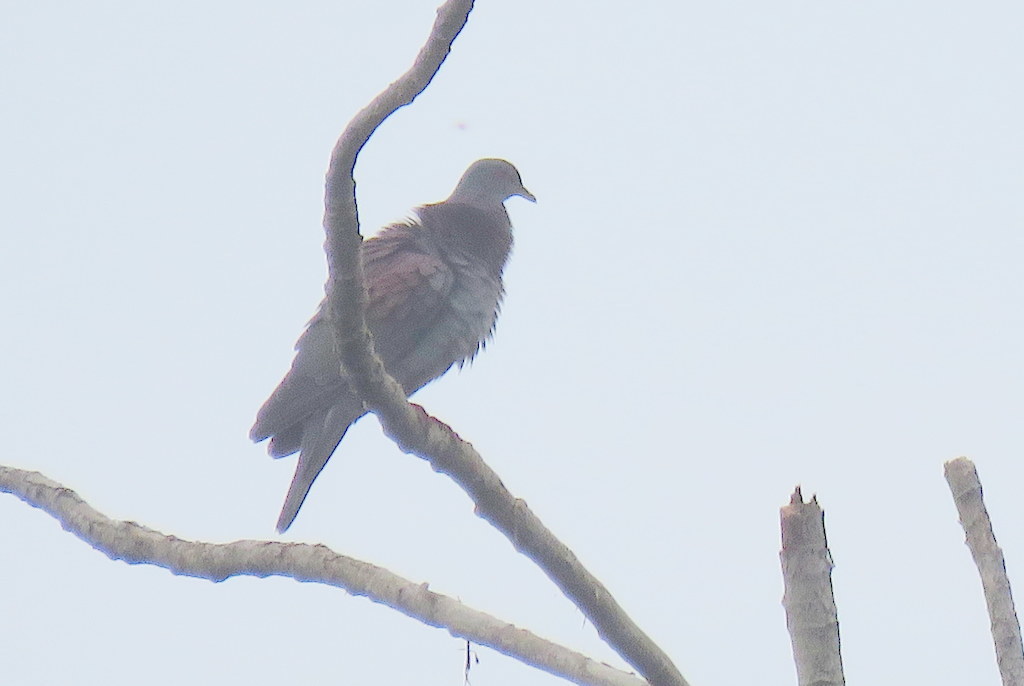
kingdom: Animalia
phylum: Chordata
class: Aves
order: Columbiformes
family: Columbidae
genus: Patagioenas
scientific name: Patagioenas cayennensis
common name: Pale-vented pigeon
